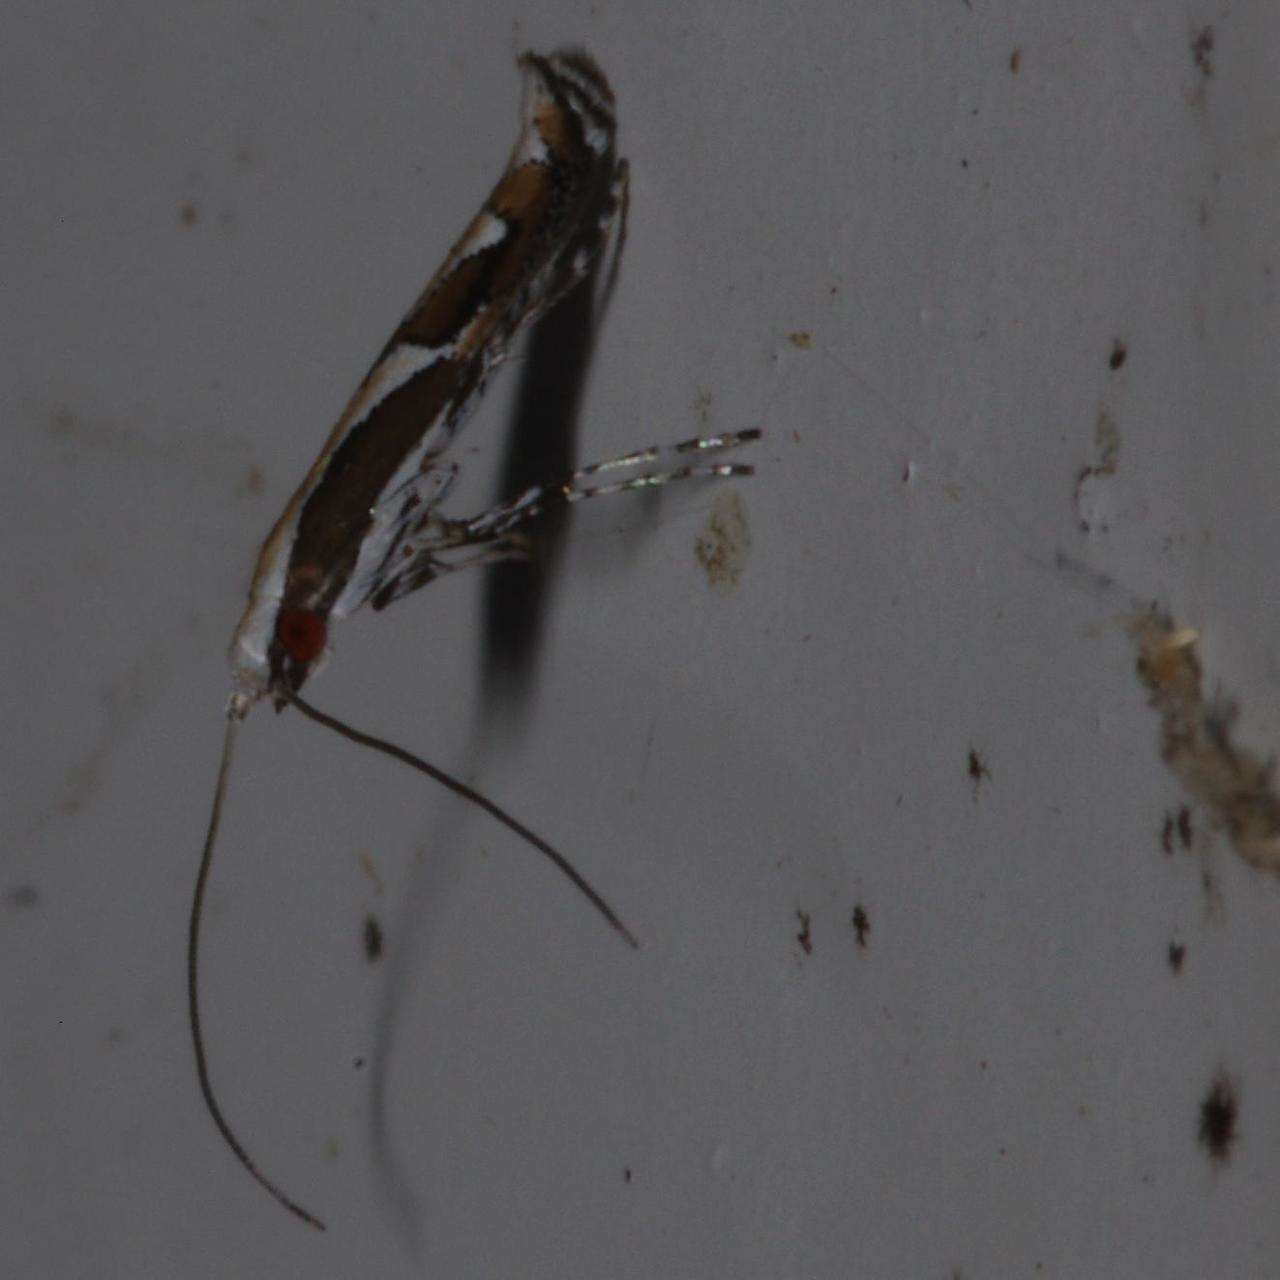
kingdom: Animalia
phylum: Arthropoda
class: Insecta
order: Lepidoptera
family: Gracillariidae
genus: Acrocercops
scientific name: Acrocercops ophiodes
